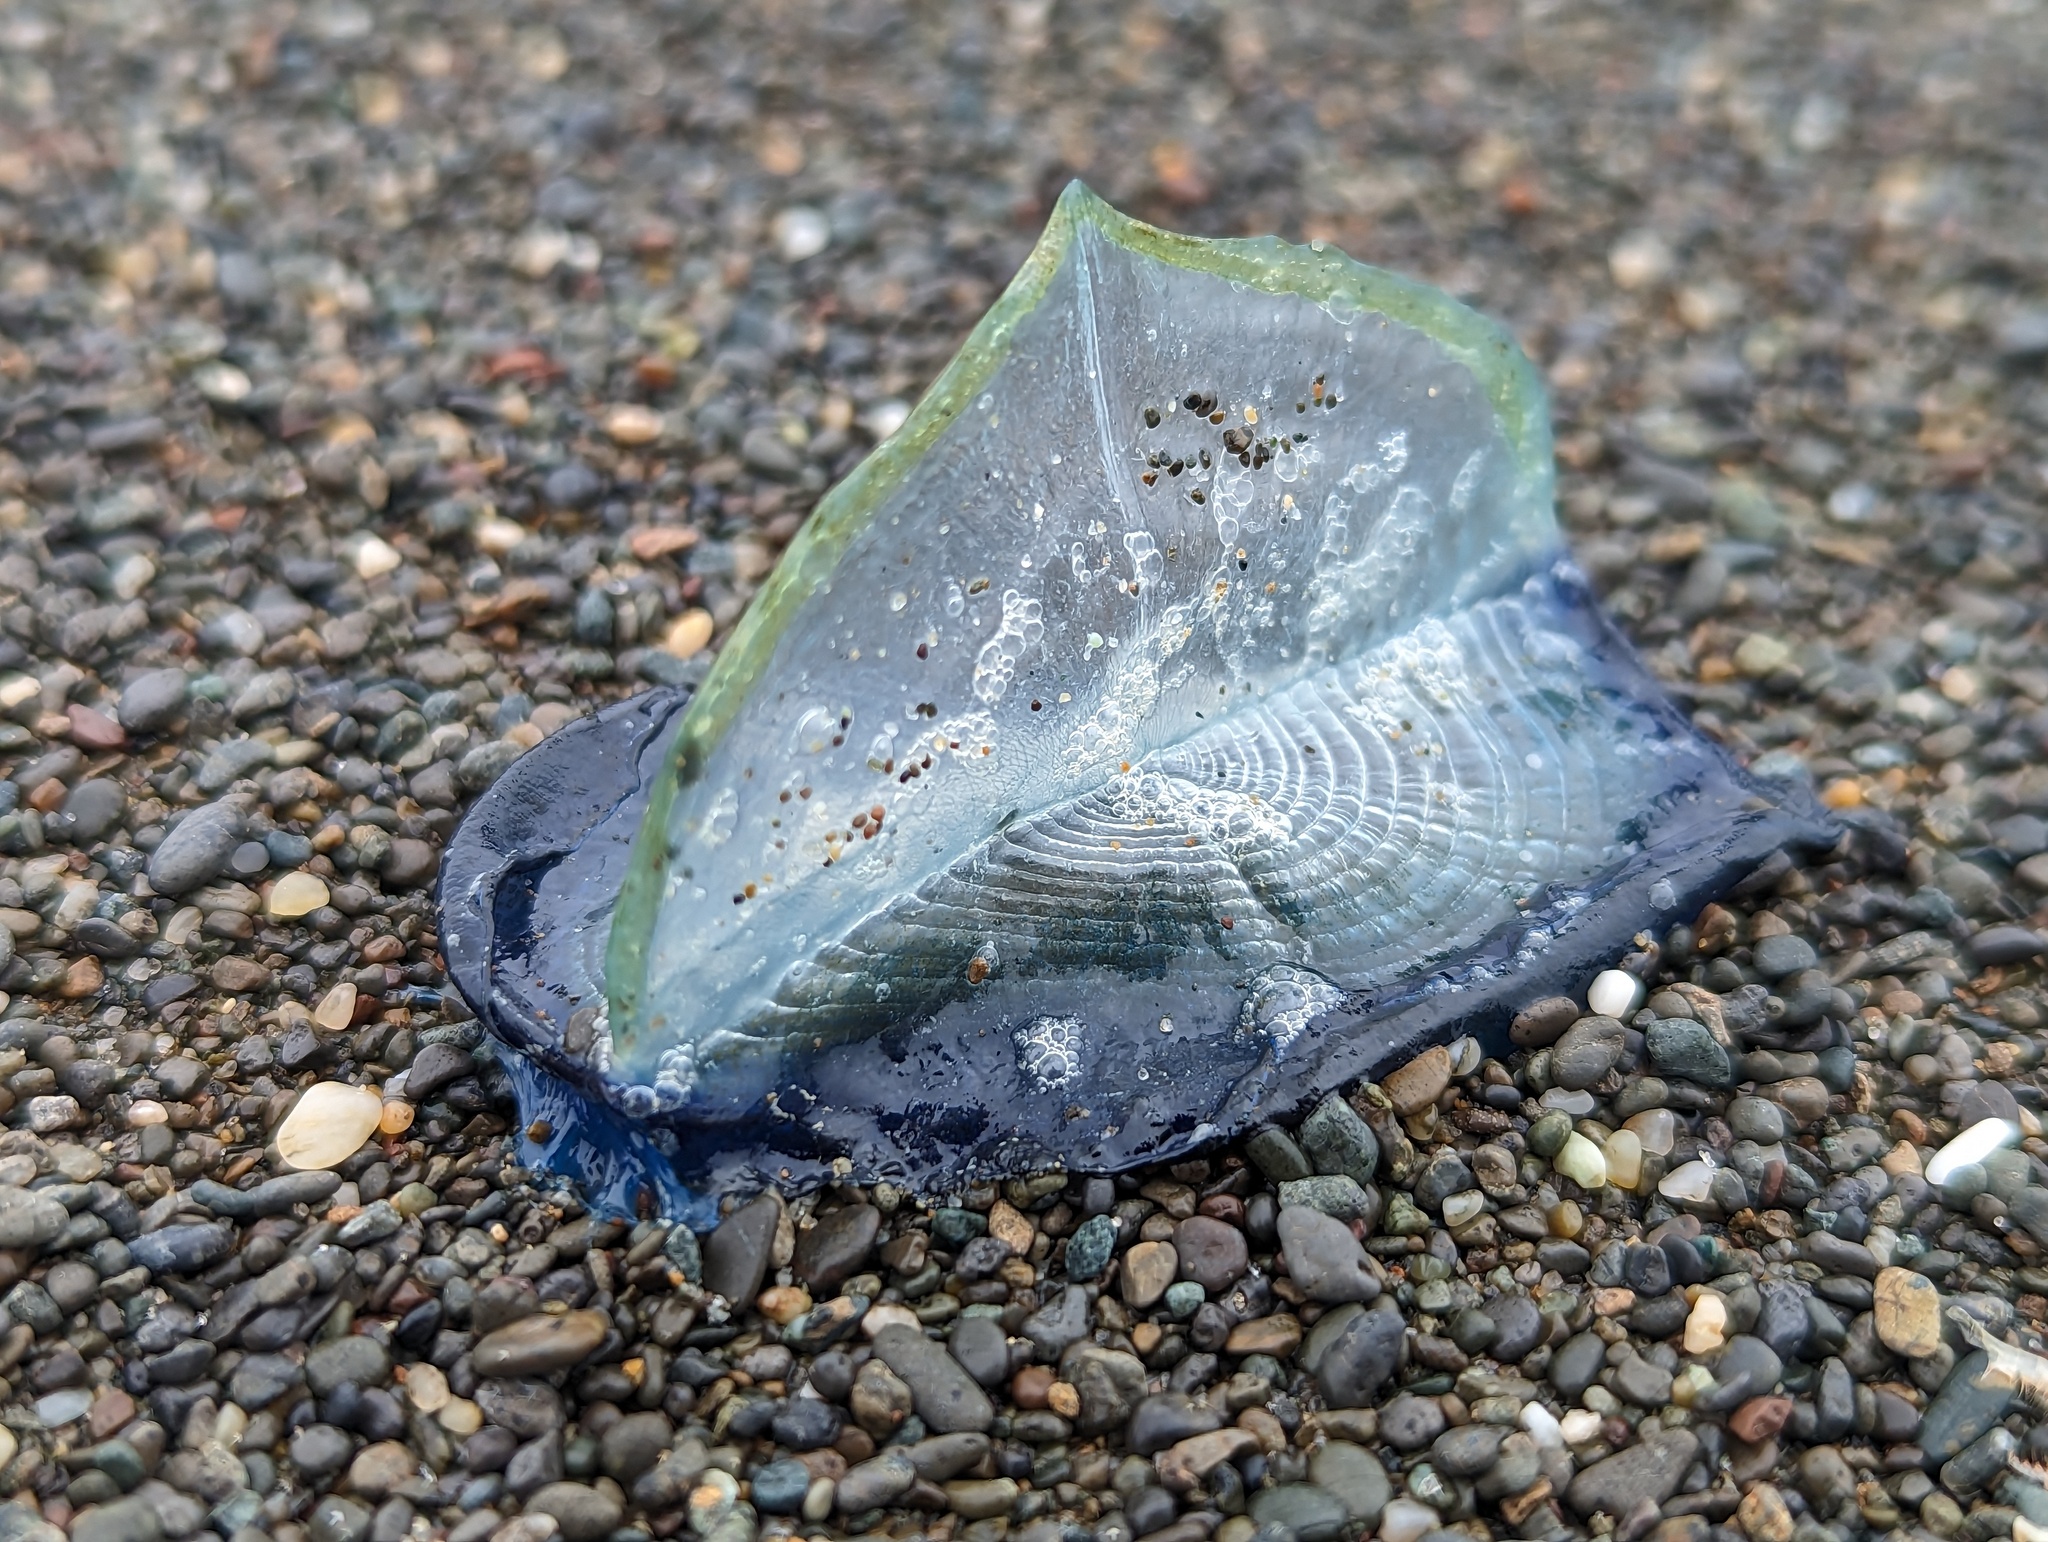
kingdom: Animalia
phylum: Cnidaria
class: Hydrozoa
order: Anthoathecata
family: Porpitidae
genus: Velella
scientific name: Velella velella
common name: By-the-wind-sailor
